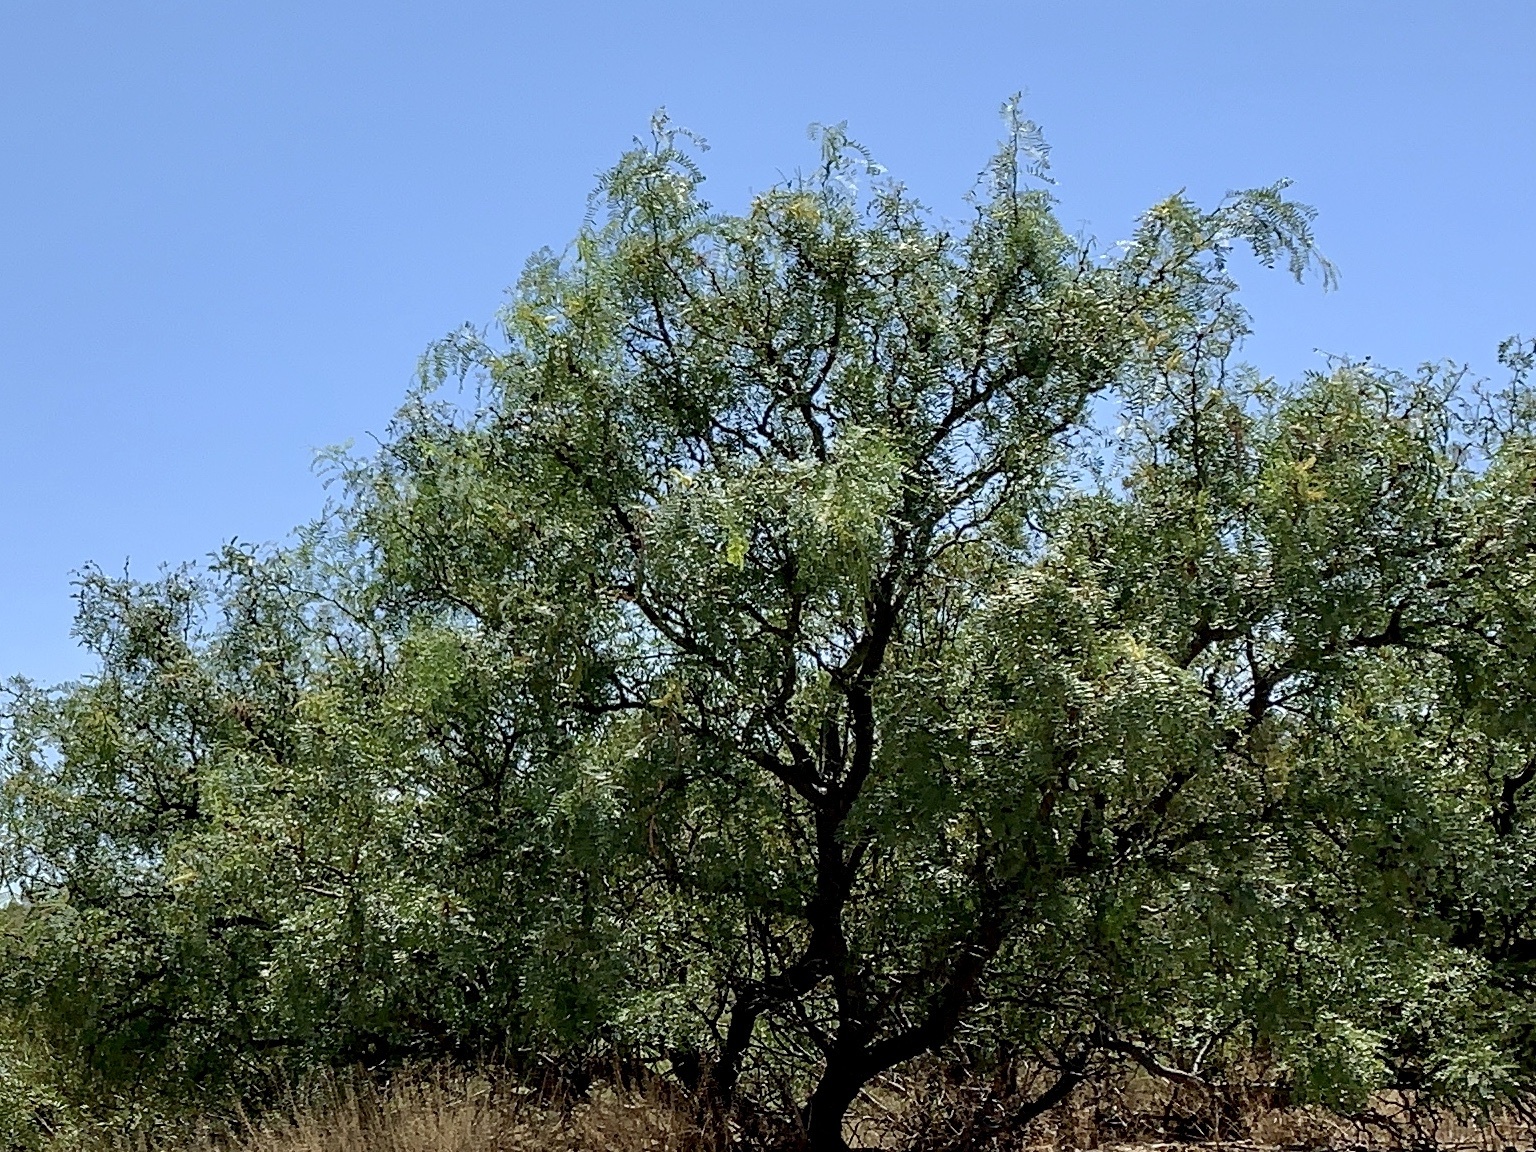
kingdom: Plantae
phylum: Tracheophyta
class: Magnoliopsida
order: Fabales
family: Fabaceae
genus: Prosopis
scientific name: Prosopis glandulosa
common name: Honey mesquite
